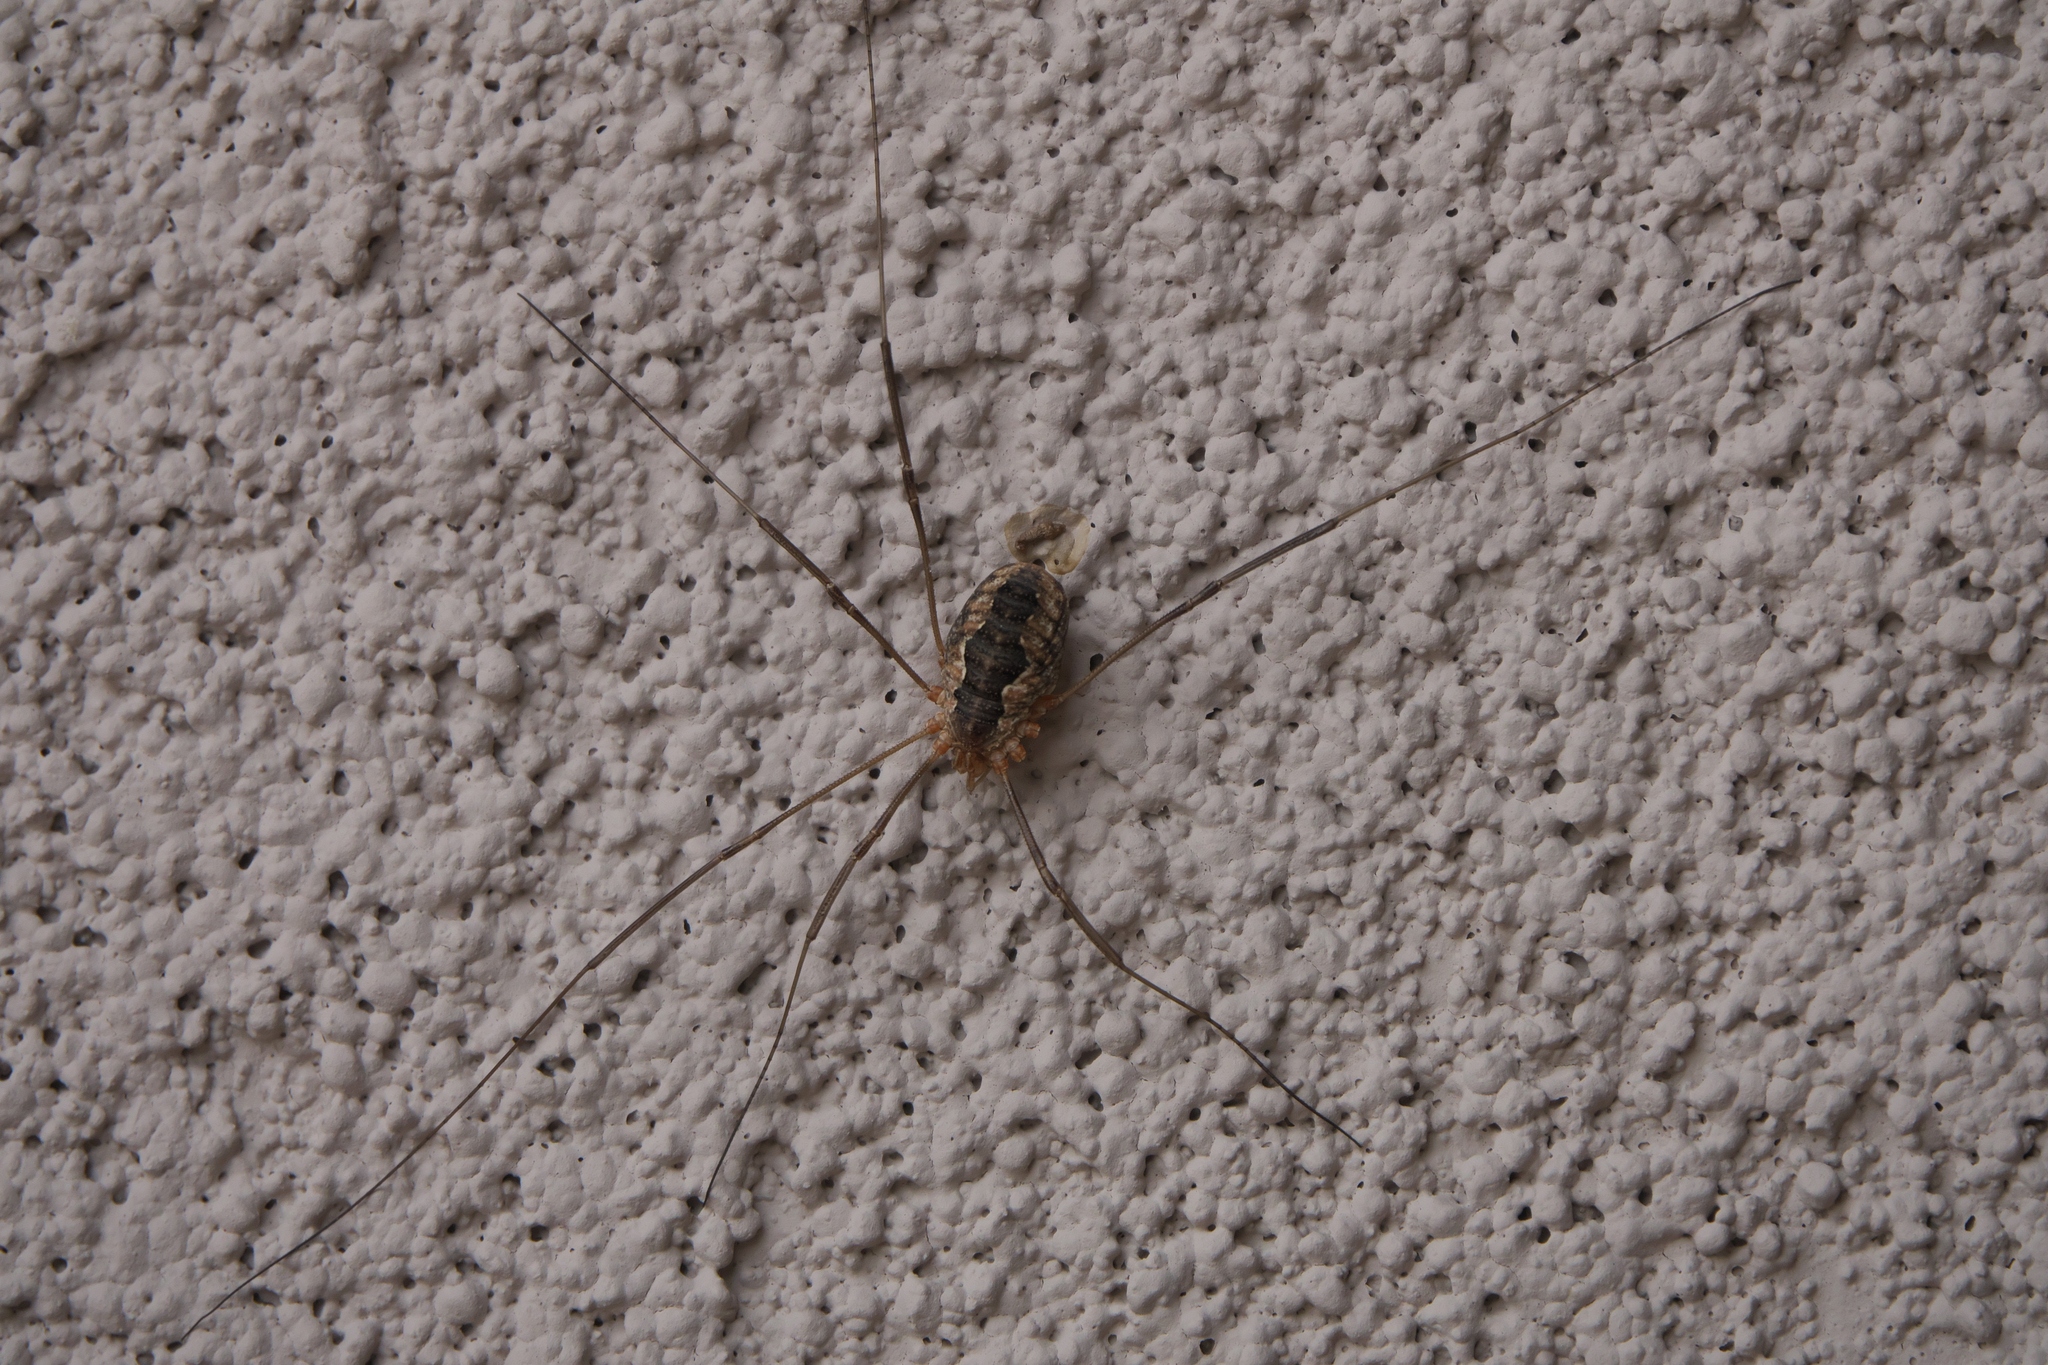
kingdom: Animalia
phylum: Arthropoda
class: Arachnida
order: Opiliones
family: Phalangiidae
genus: Phalangium
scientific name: Phalangium opilio
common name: Daddy longleg
